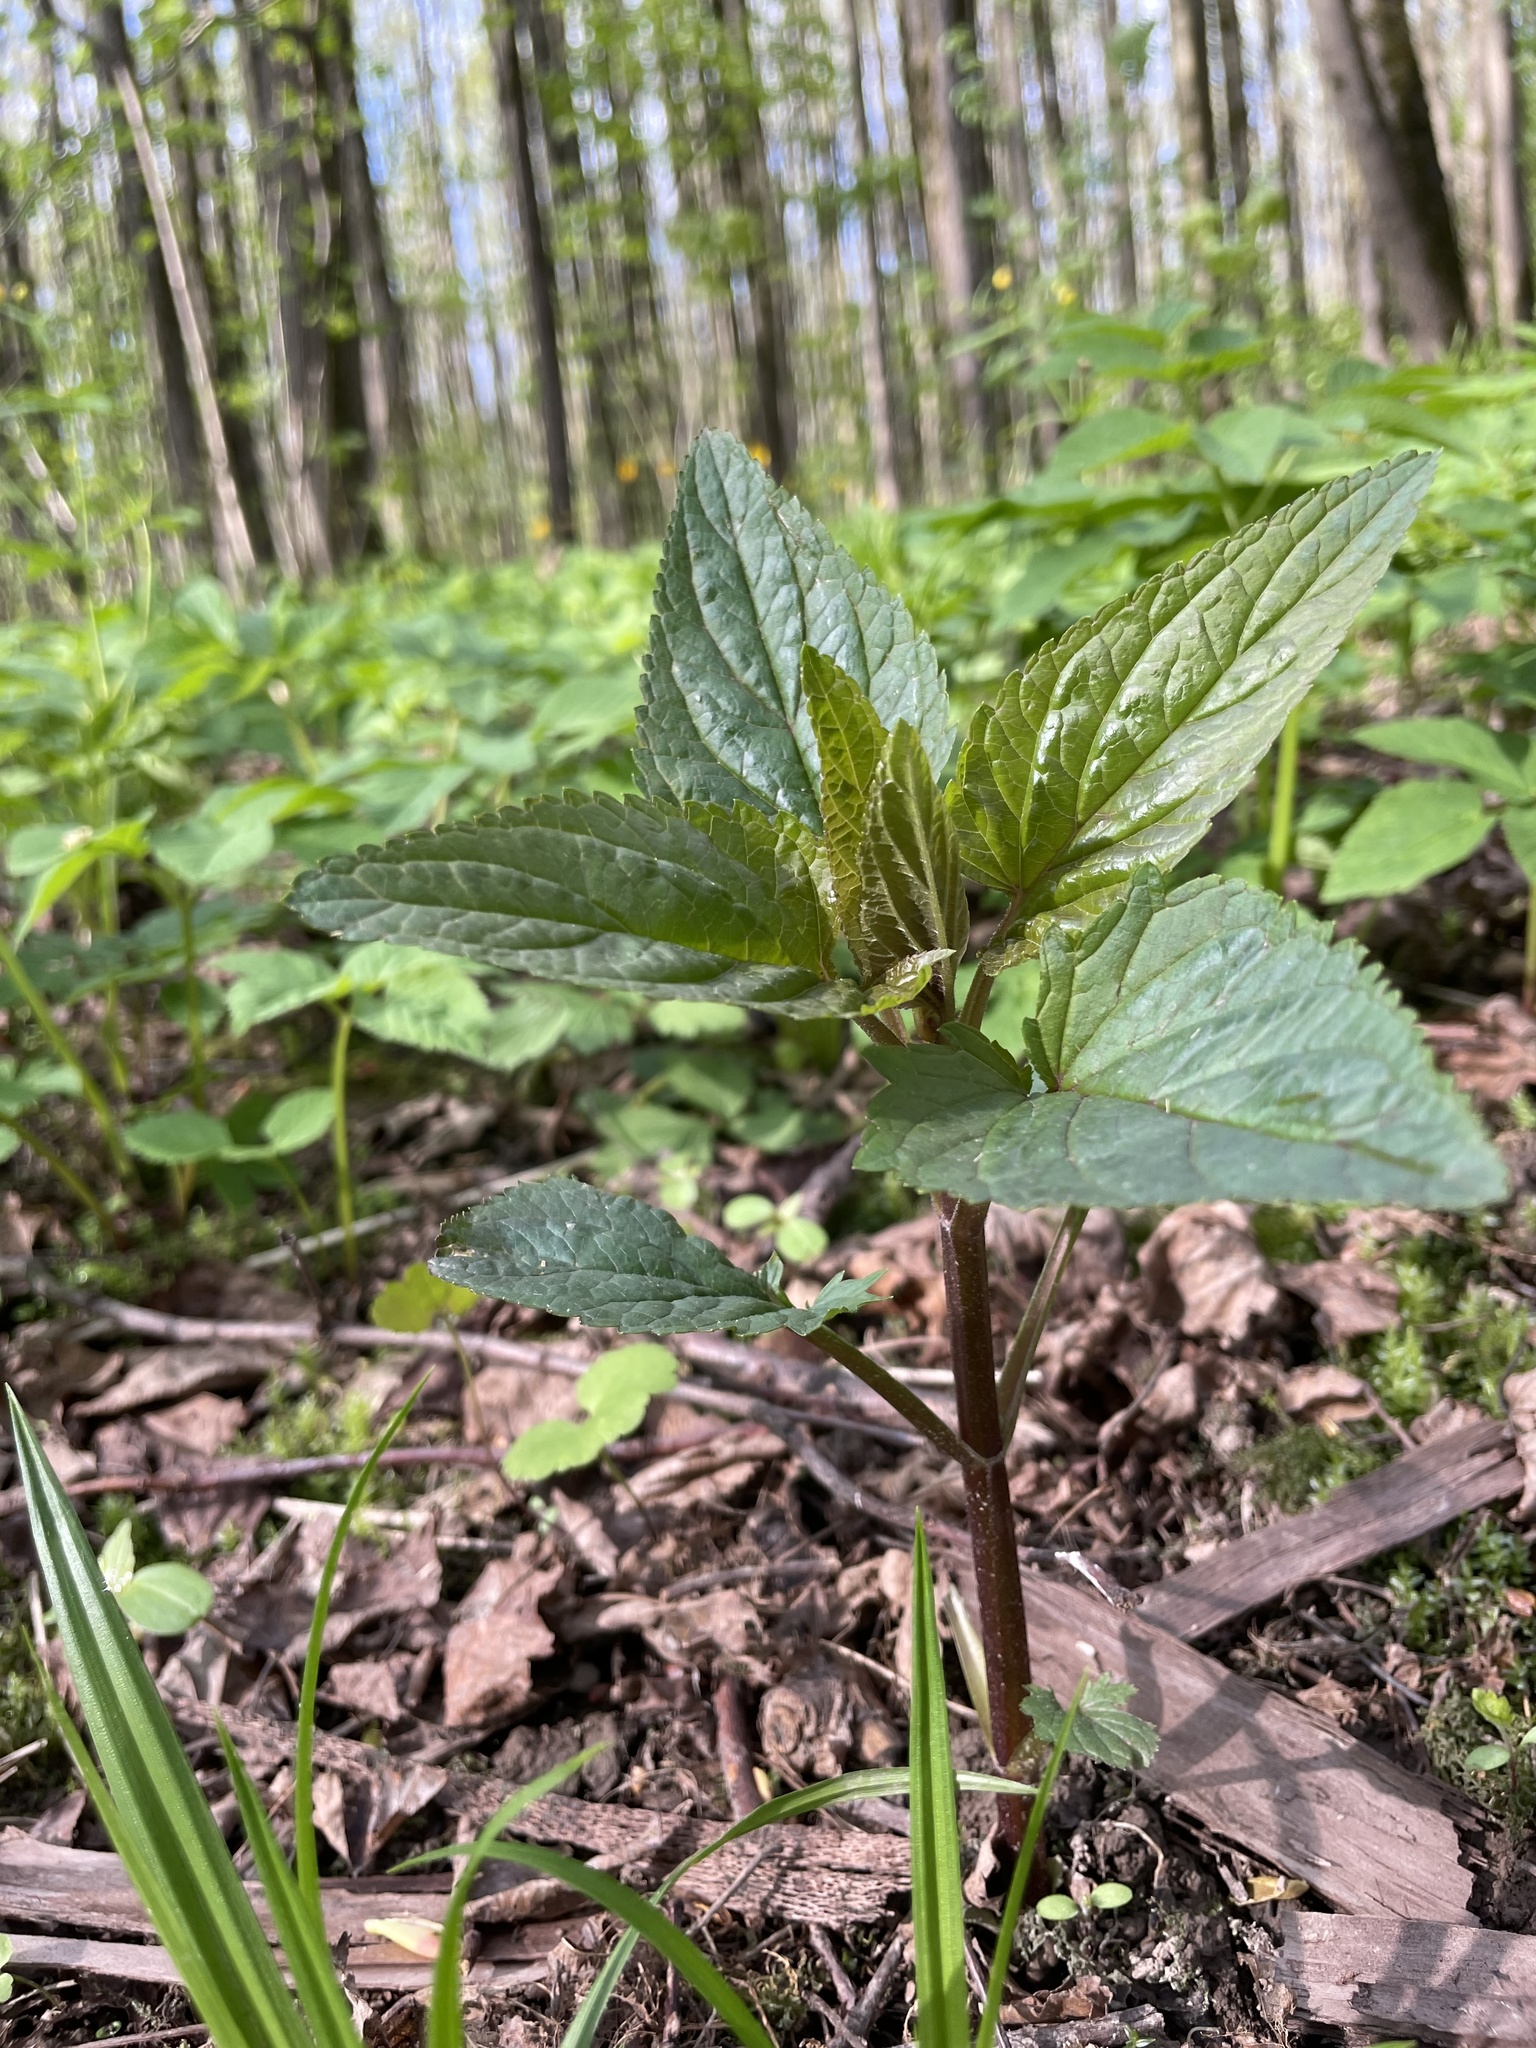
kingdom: Plantae
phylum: Tracheophyta
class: Magnoliopsida
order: Lamiales
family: Scrophulariaceae
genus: Scrophularia
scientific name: Scrophularia nodosa
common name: Common figwort
